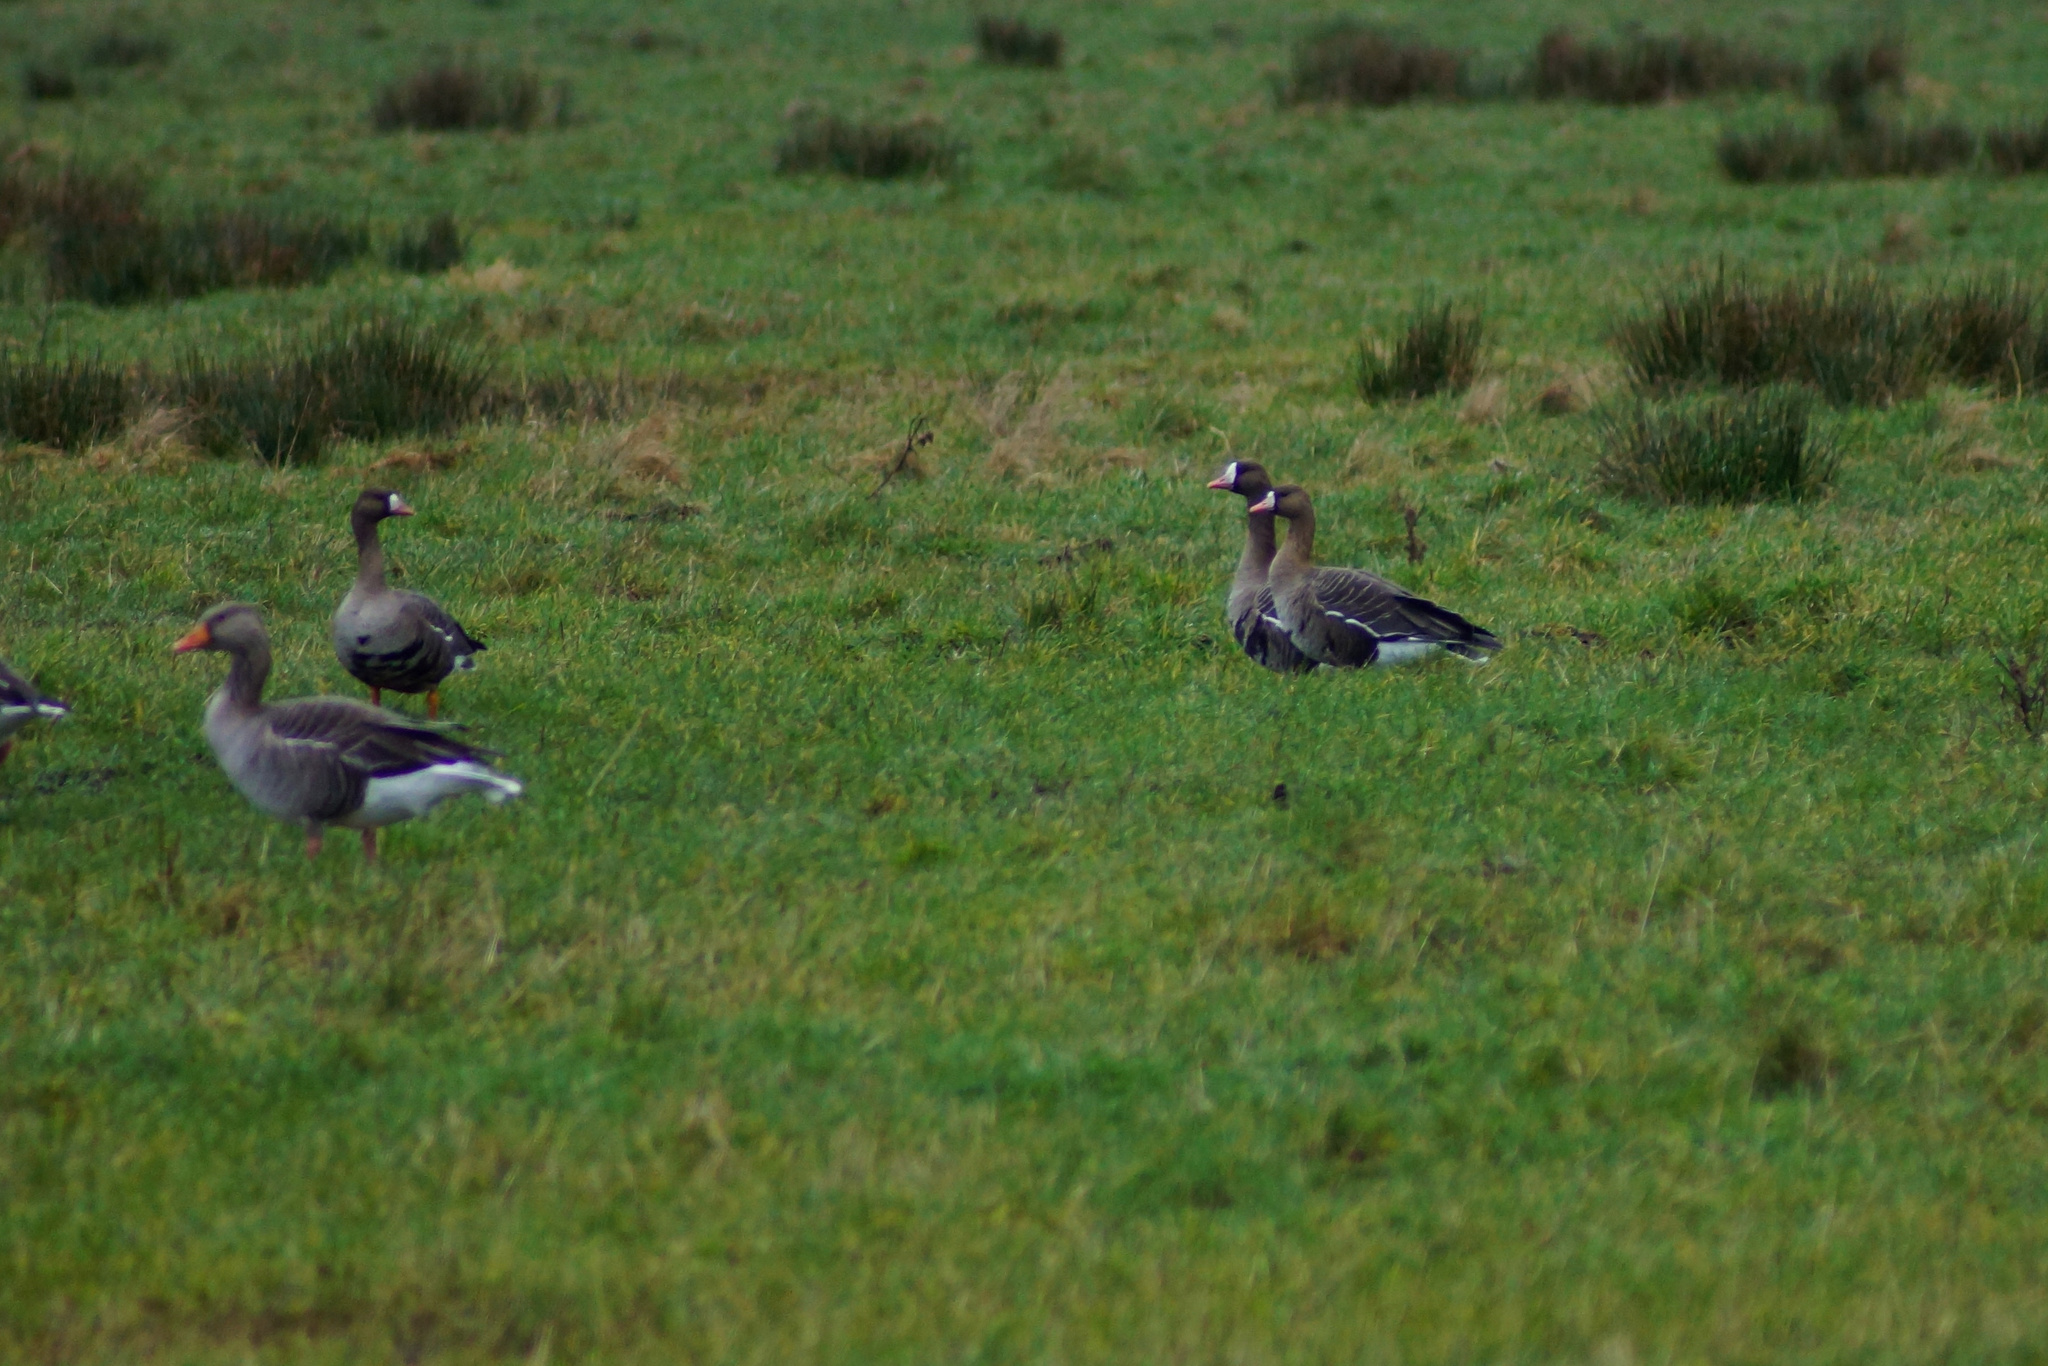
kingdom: Animalia
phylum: Chordata
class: Aves
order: Anseriformes
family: Anatidae
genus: Anser
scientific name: Anser albifrons
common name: Greater white-fronted goose
